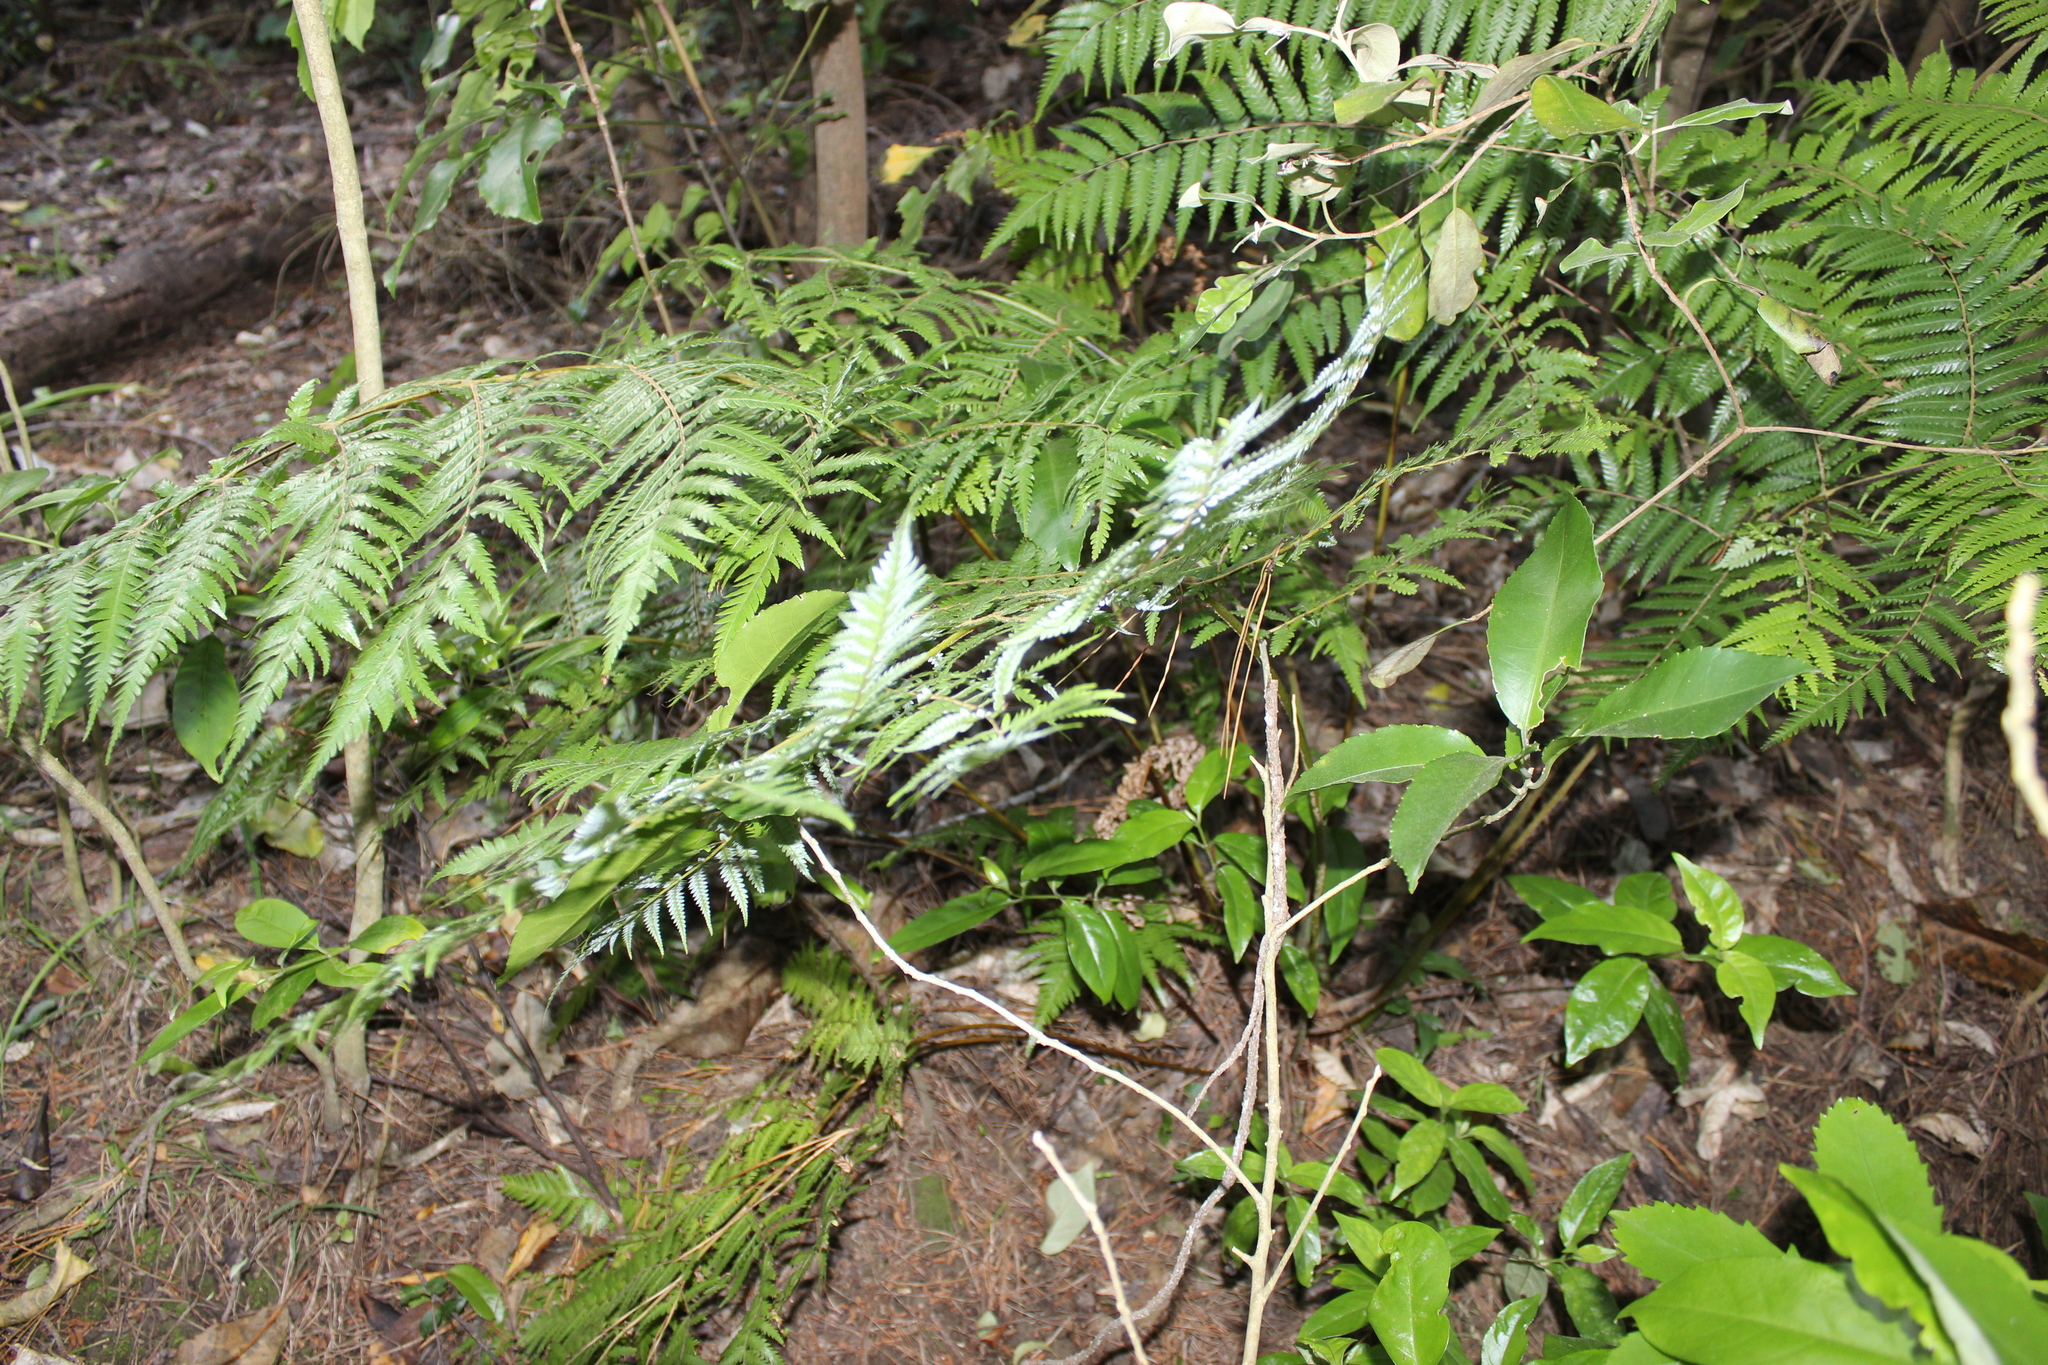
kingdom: Plantae
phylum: Tracheophyta
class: Polypodiopsida
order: Cyatheales
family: Cyatheaceae
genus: Alsophila
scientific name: Alsophila dealbata
